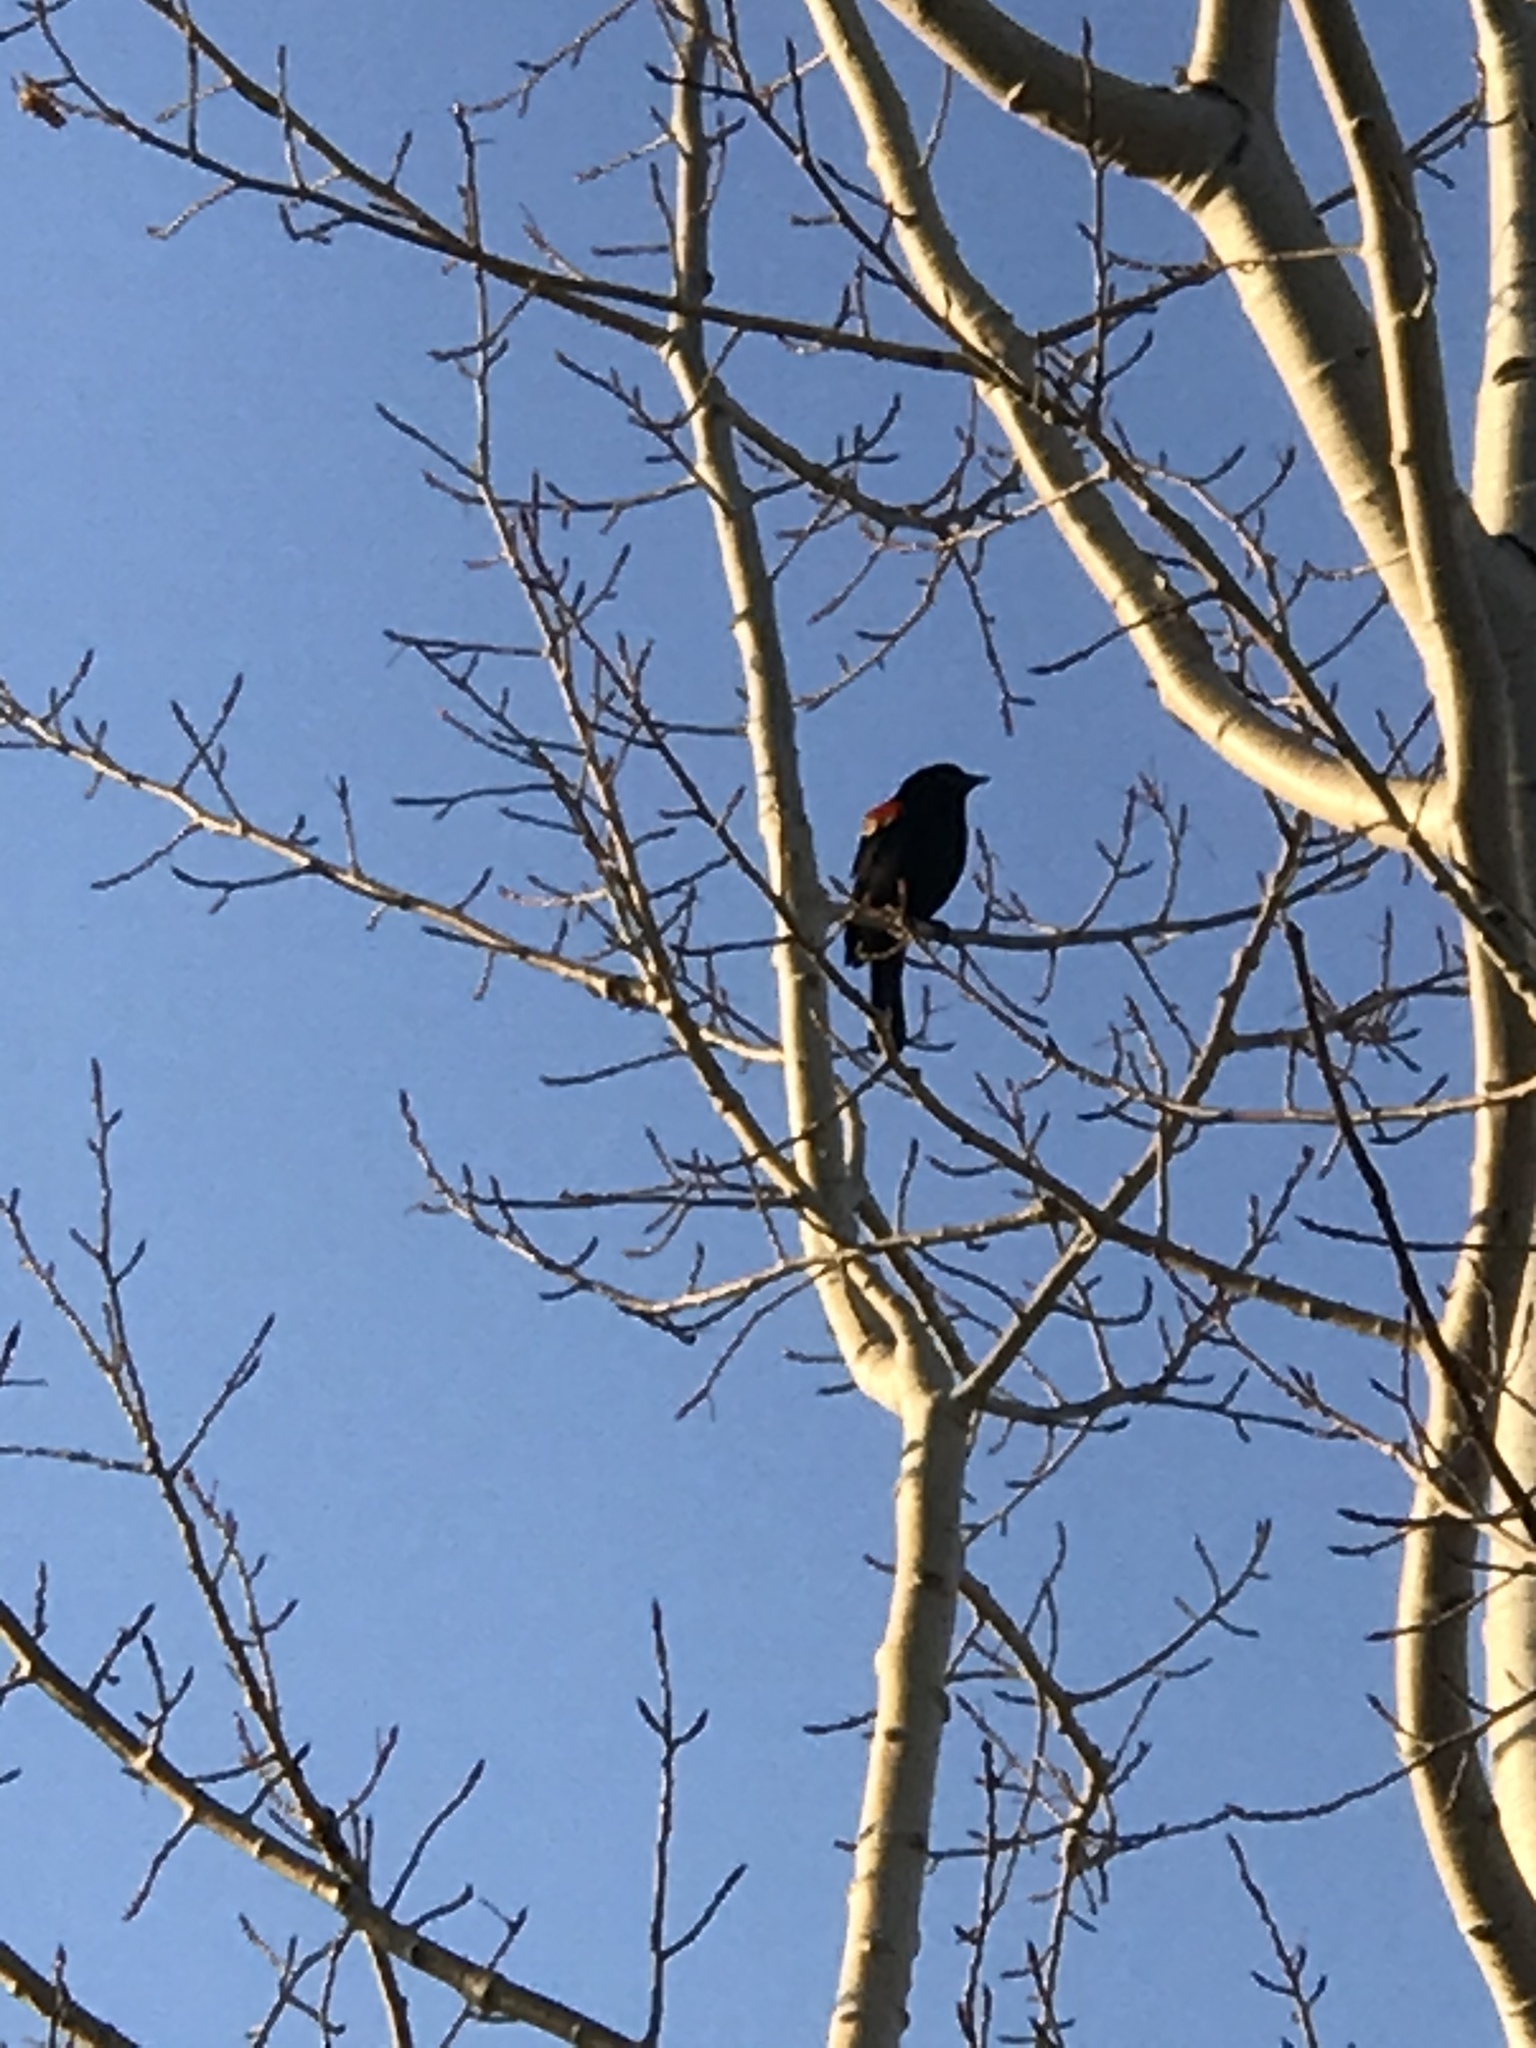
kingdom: Animalia
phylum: Chordata
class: Aves
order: Passeriformes
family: Icteridae
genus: Agelaius
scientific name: Agelaius phoeniceus
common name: Red-winged blackbird
